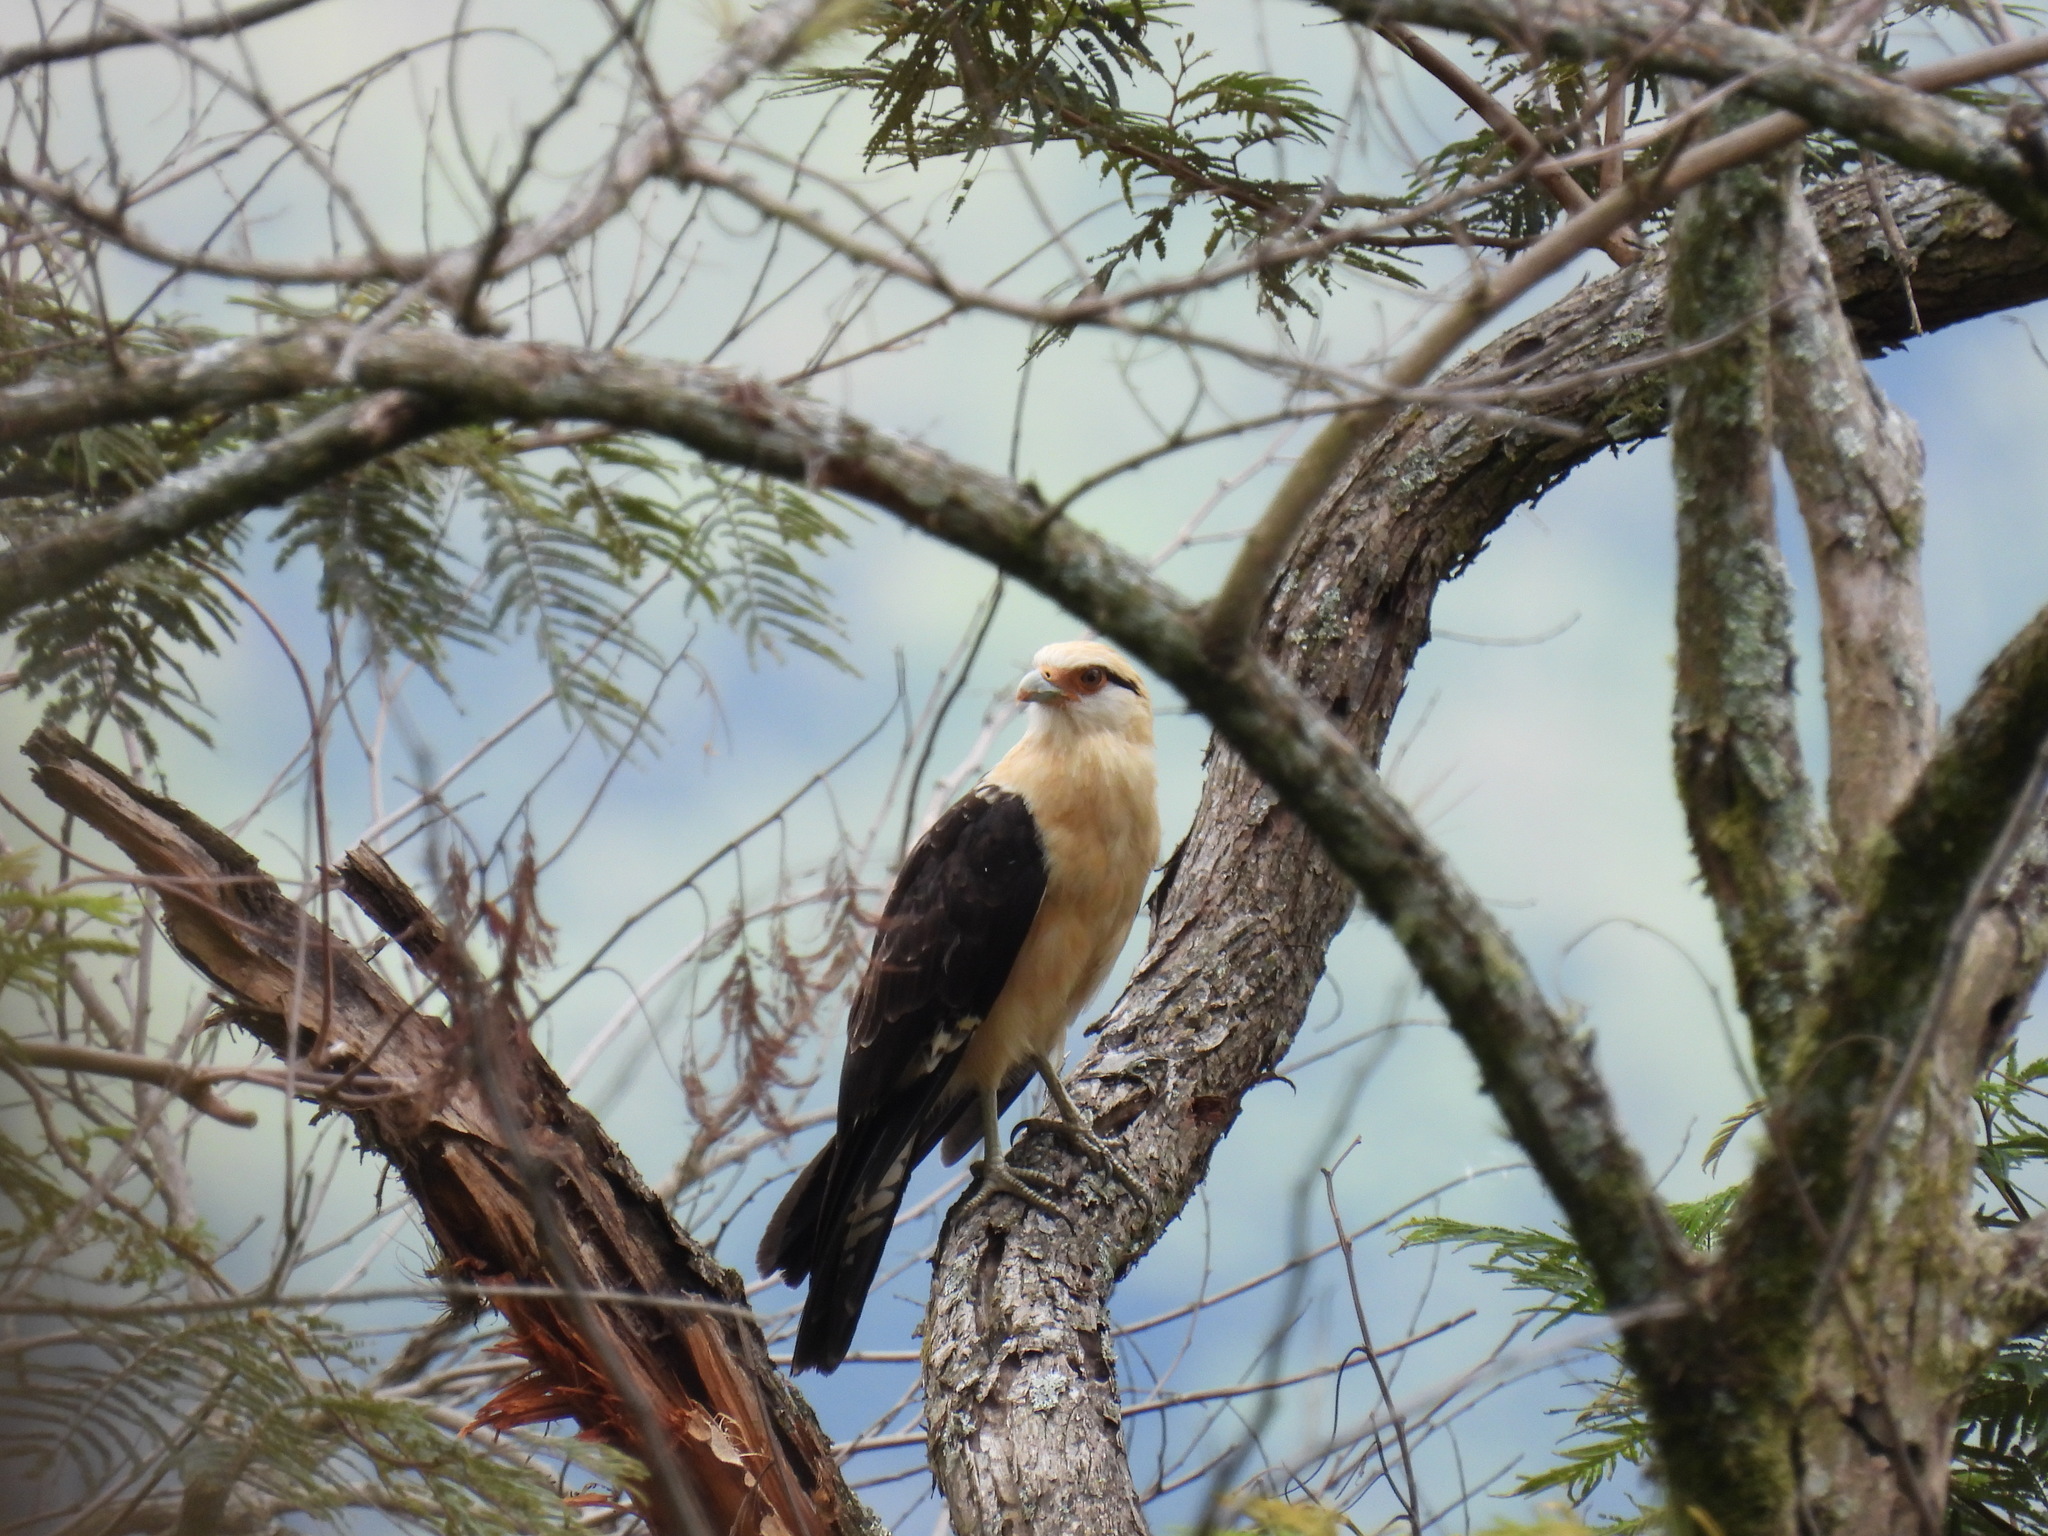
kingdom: Animalia
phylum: Chordata
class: Aves
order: Falconiformes
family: Falconidae
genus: Daptrius
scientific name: Daptrius
